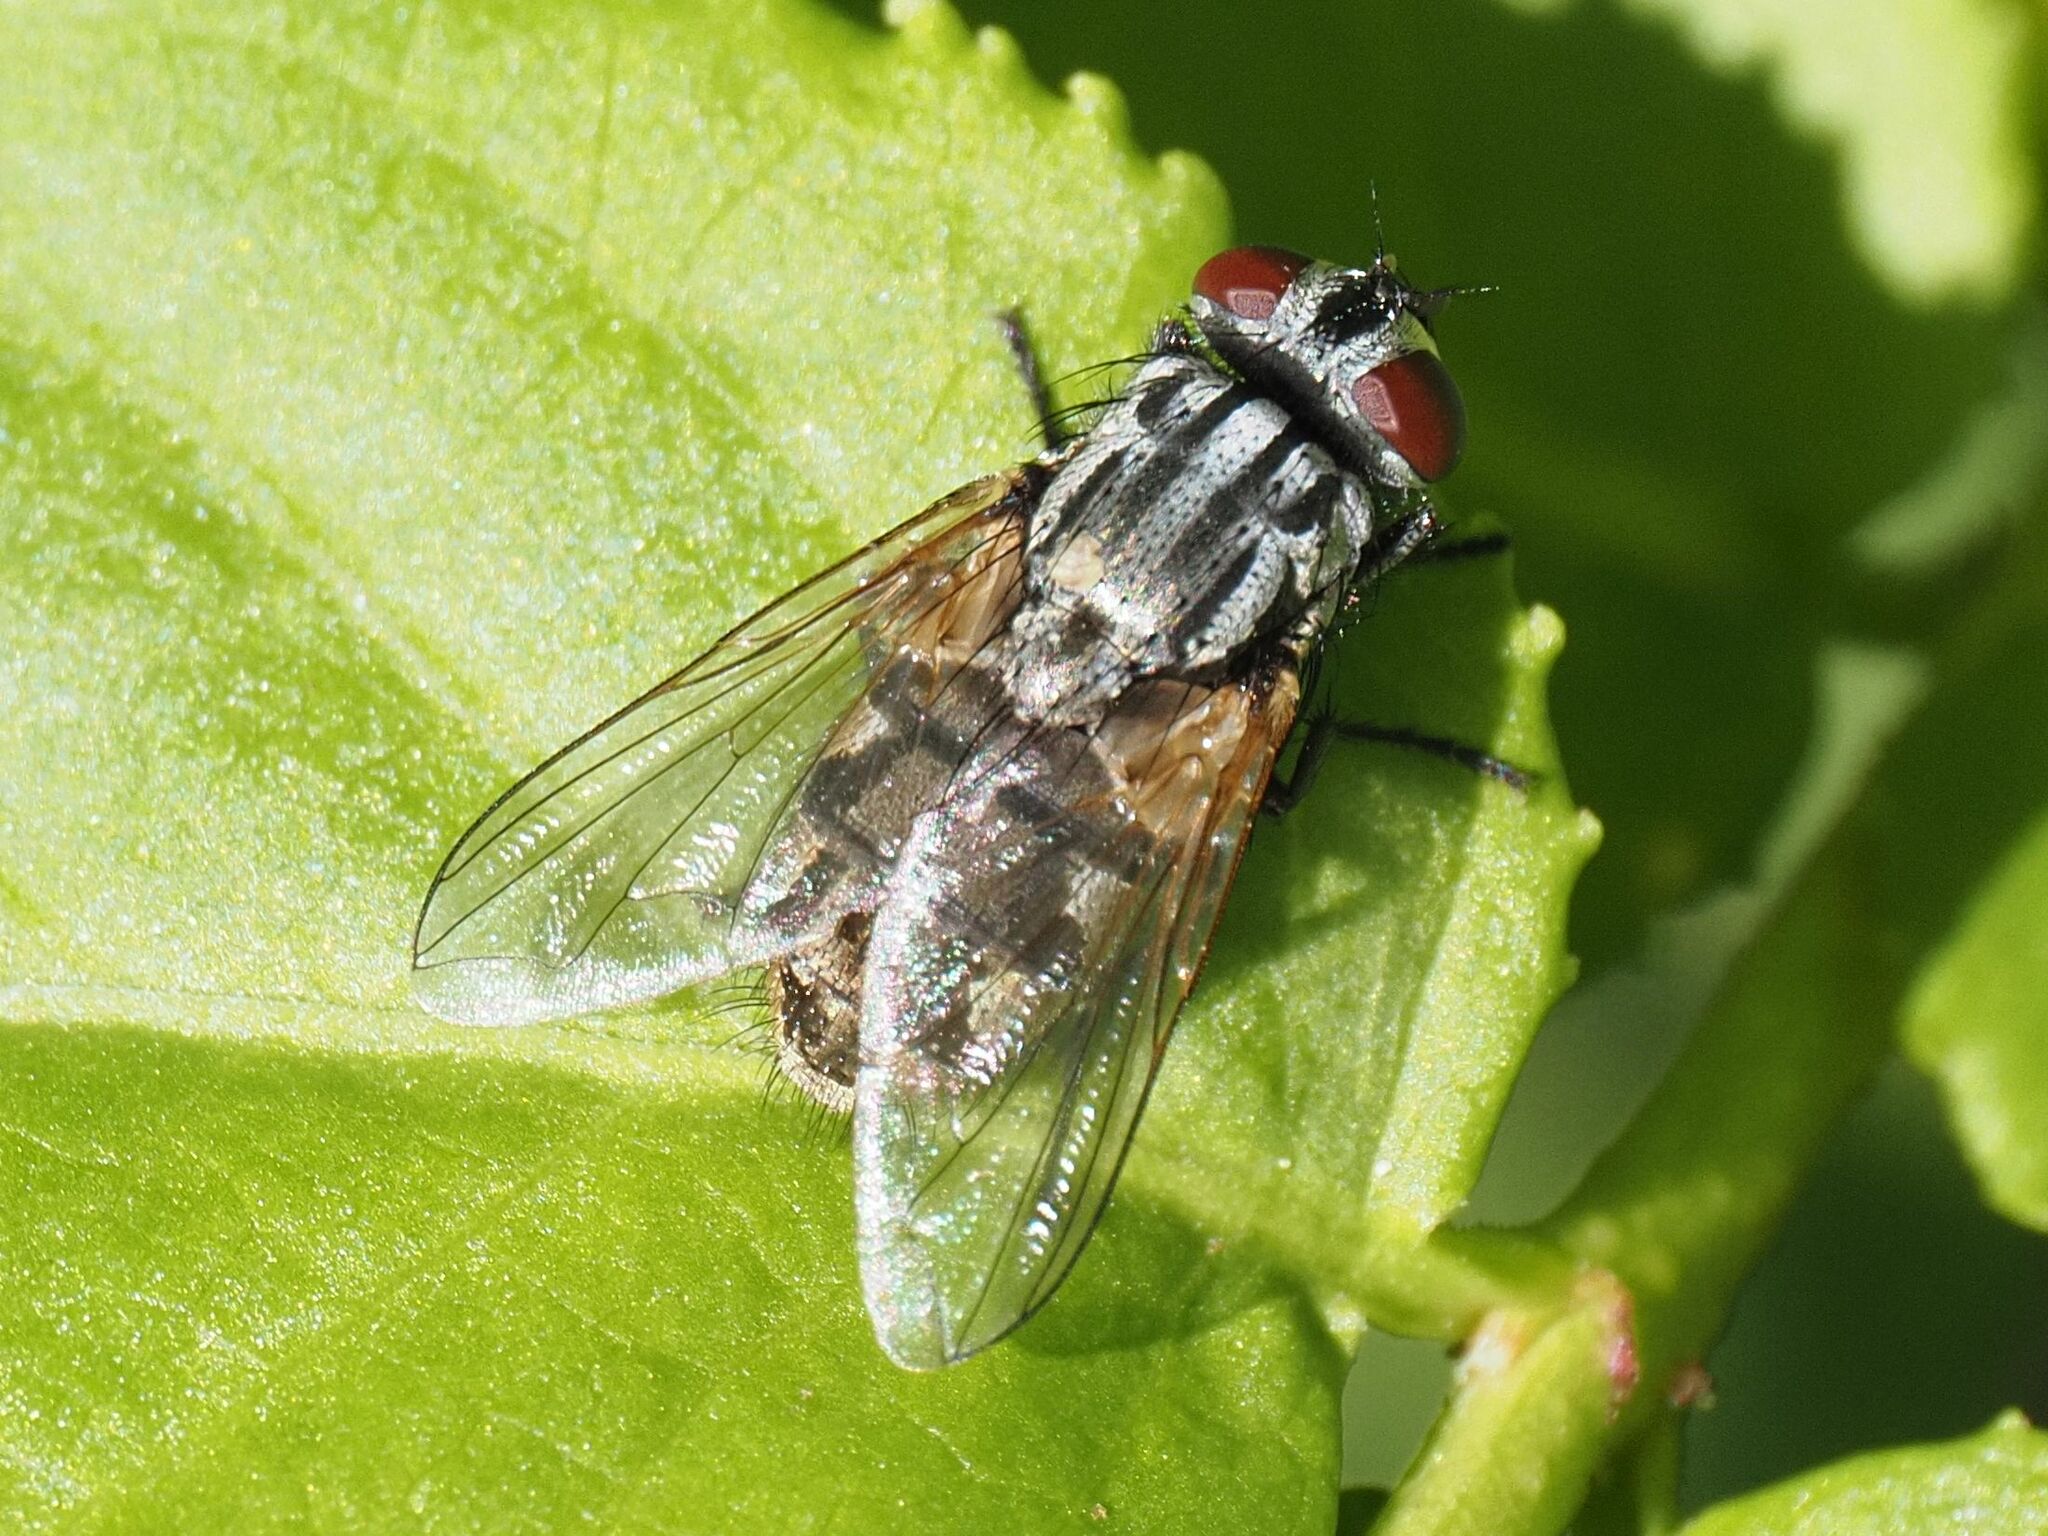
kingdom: Animalia
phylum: Arthropoda
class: Insecta
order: Diptera
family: Muscidae
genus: Musca
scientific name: Musca autumnalis
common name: Face fly
